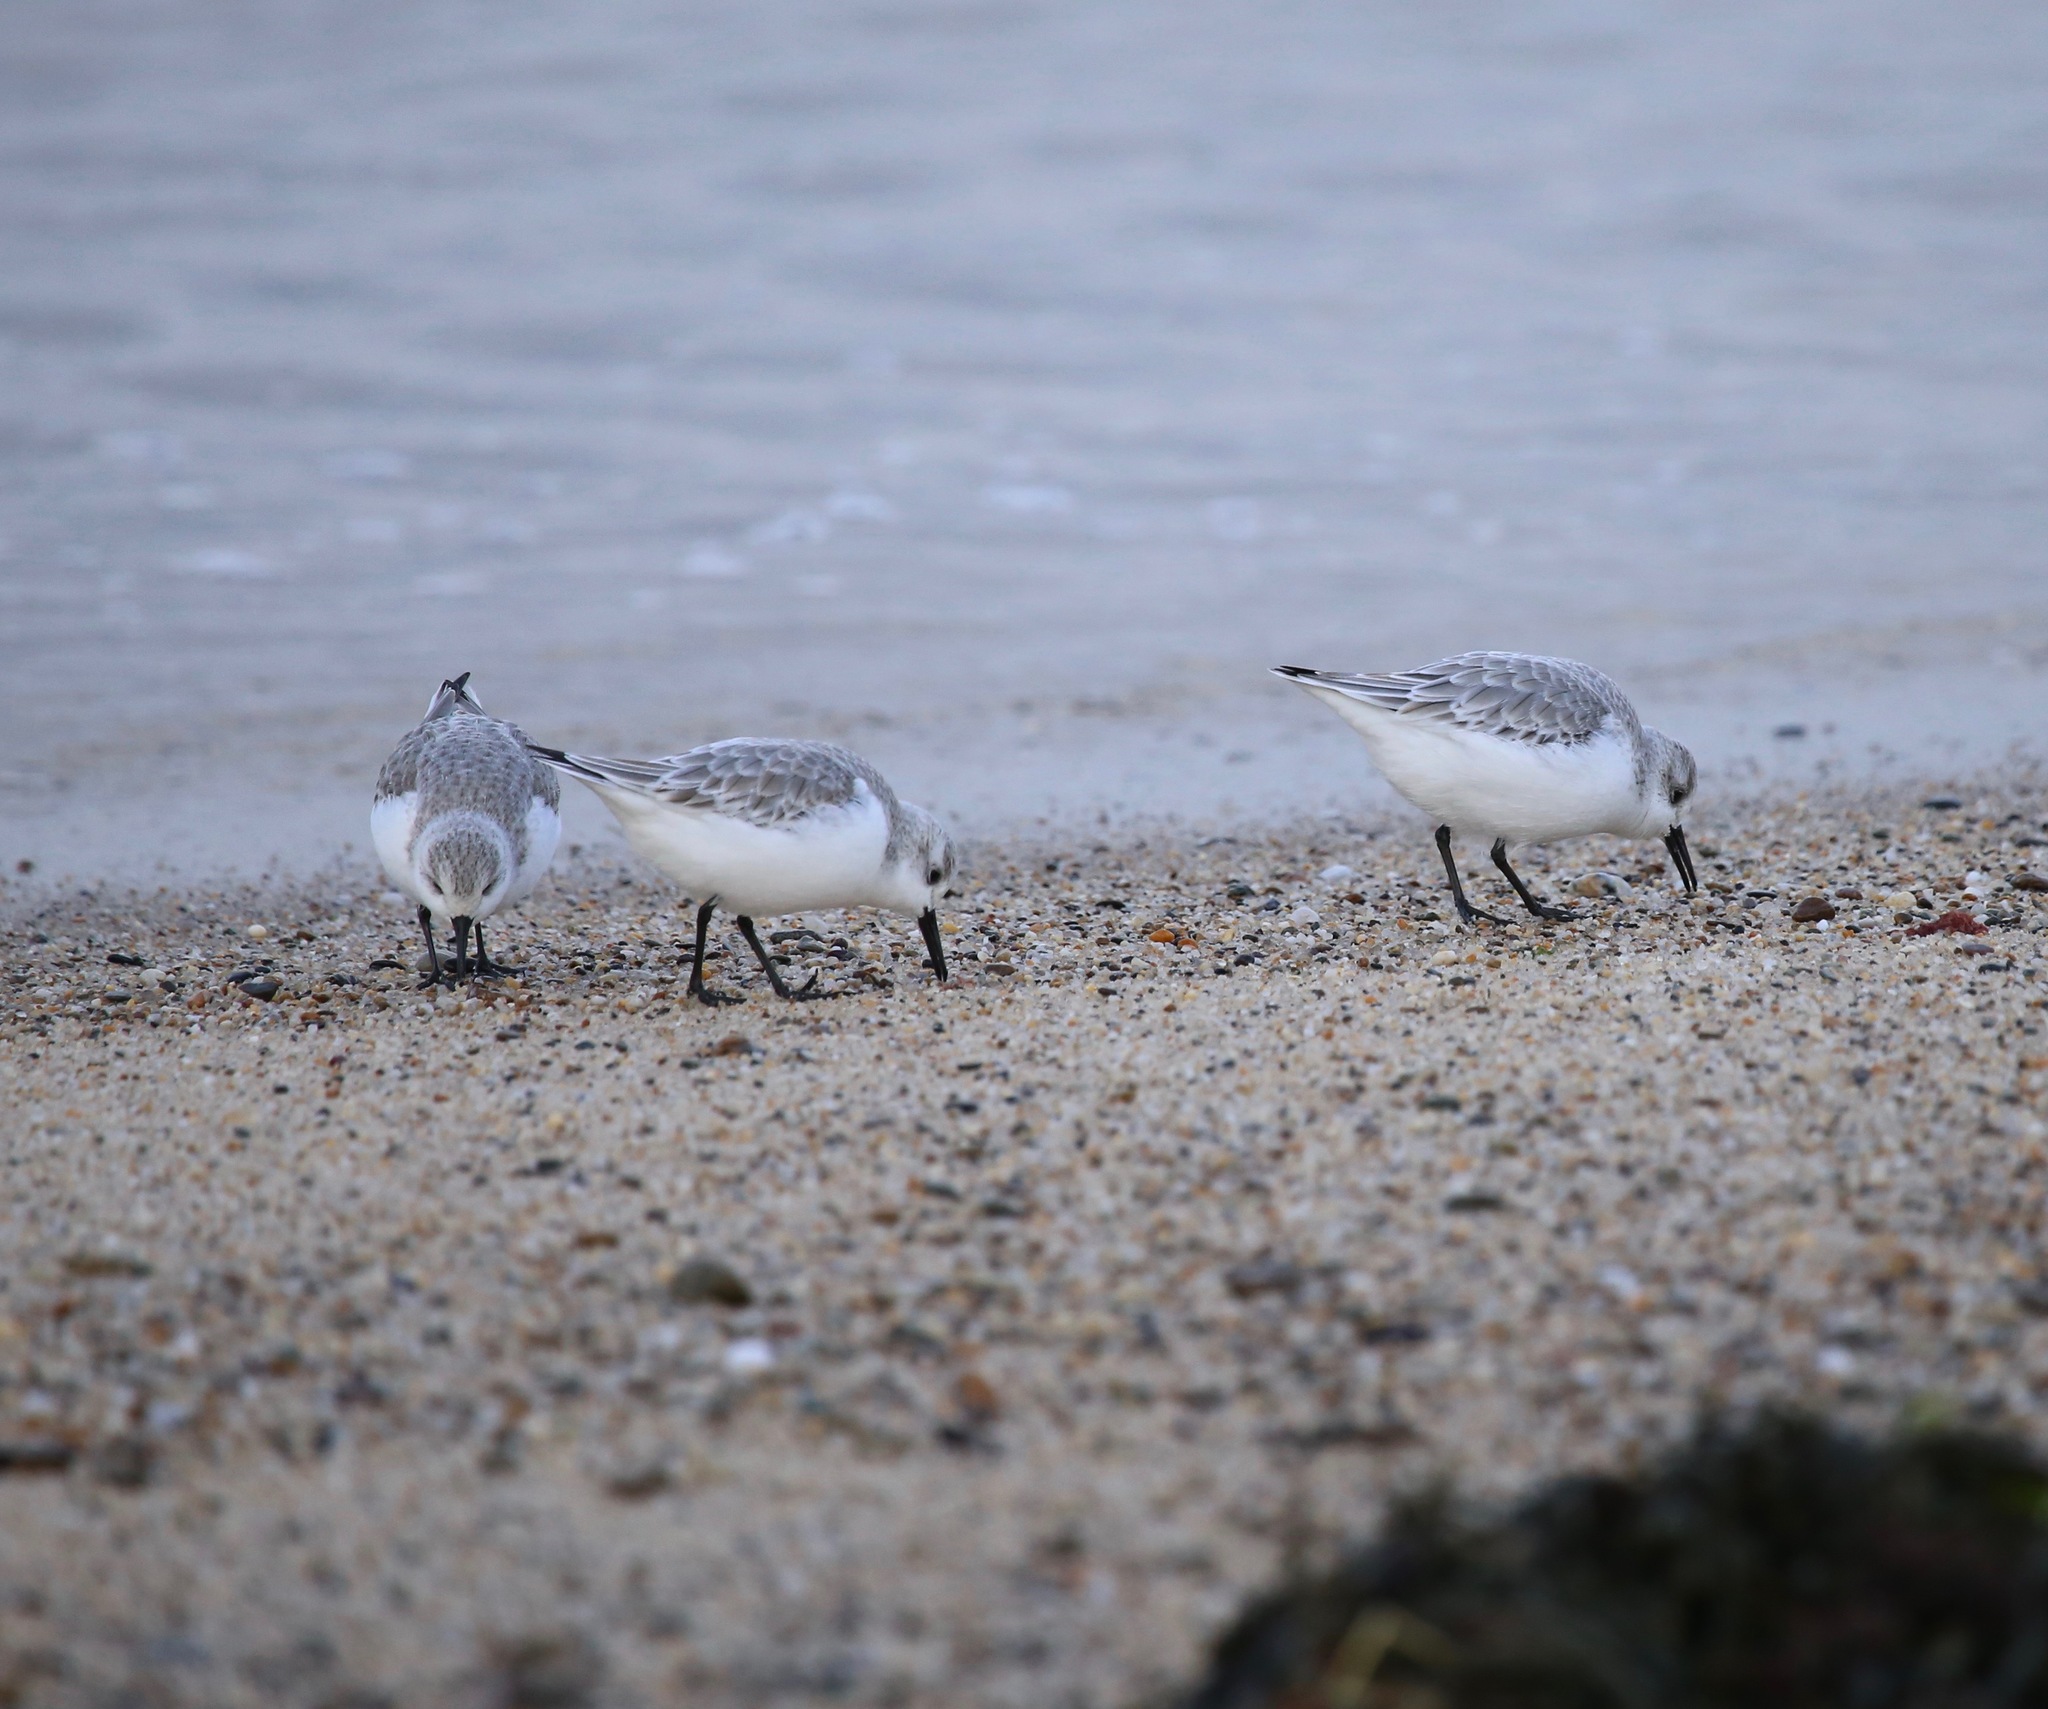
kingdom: Animalia
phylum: Chordata
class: Aves
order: Charadriiformes
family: Scolopacidae
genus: Calidris
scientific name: Calidris alba
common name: Sanderling
